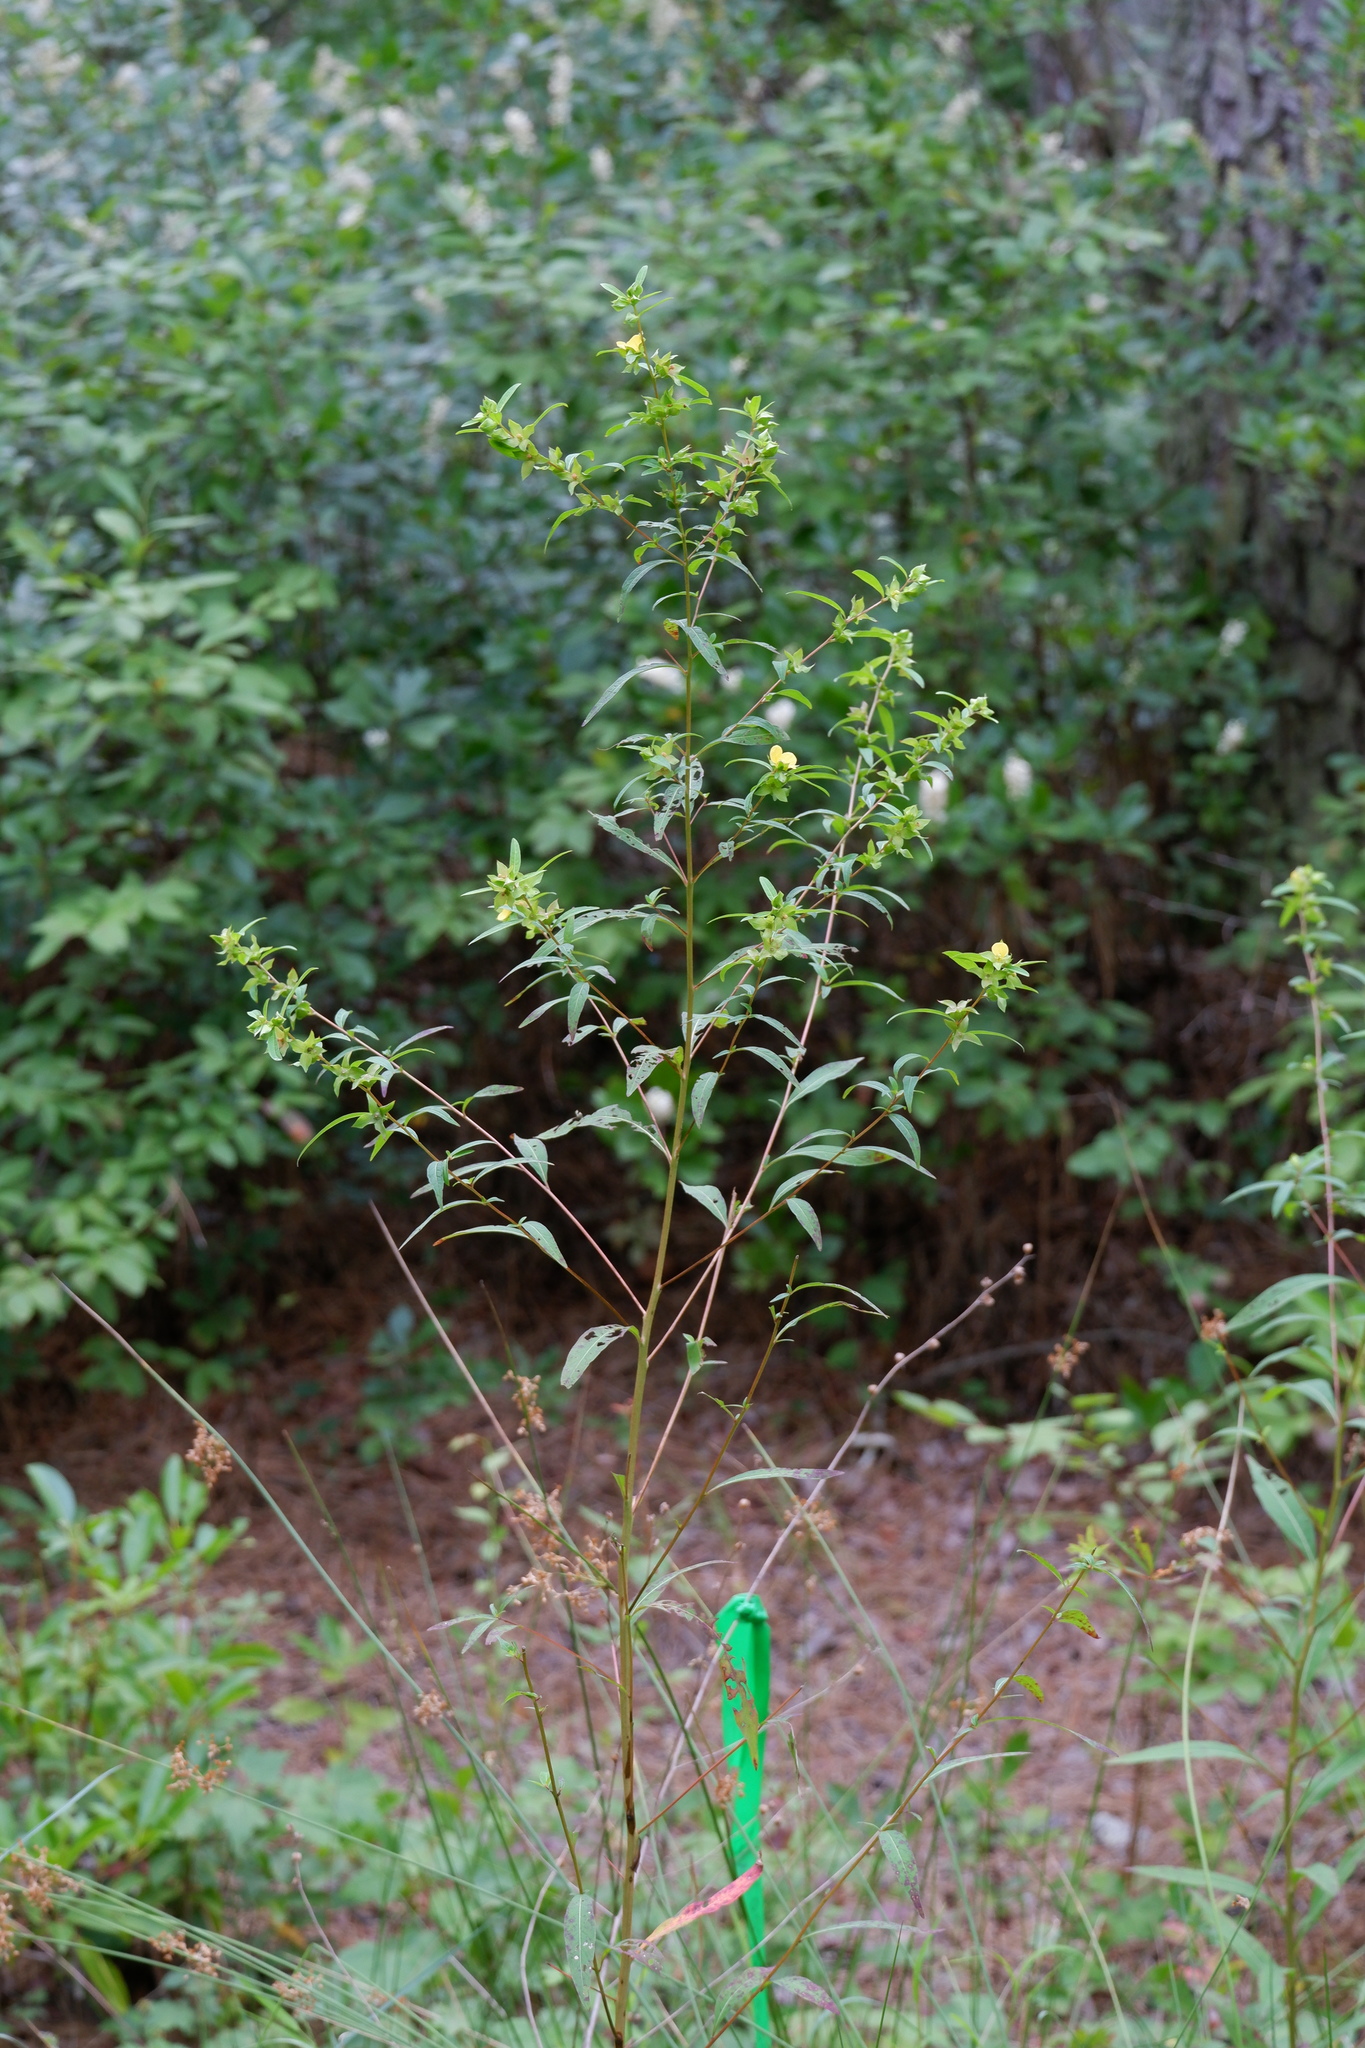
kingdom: Plantae
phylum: Tracheophyta
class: Magnoliopsida
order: Myrtales
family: Onagraceae
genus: Ludwigia
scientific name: Ludwigia alternifolia
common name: Rattlebox
